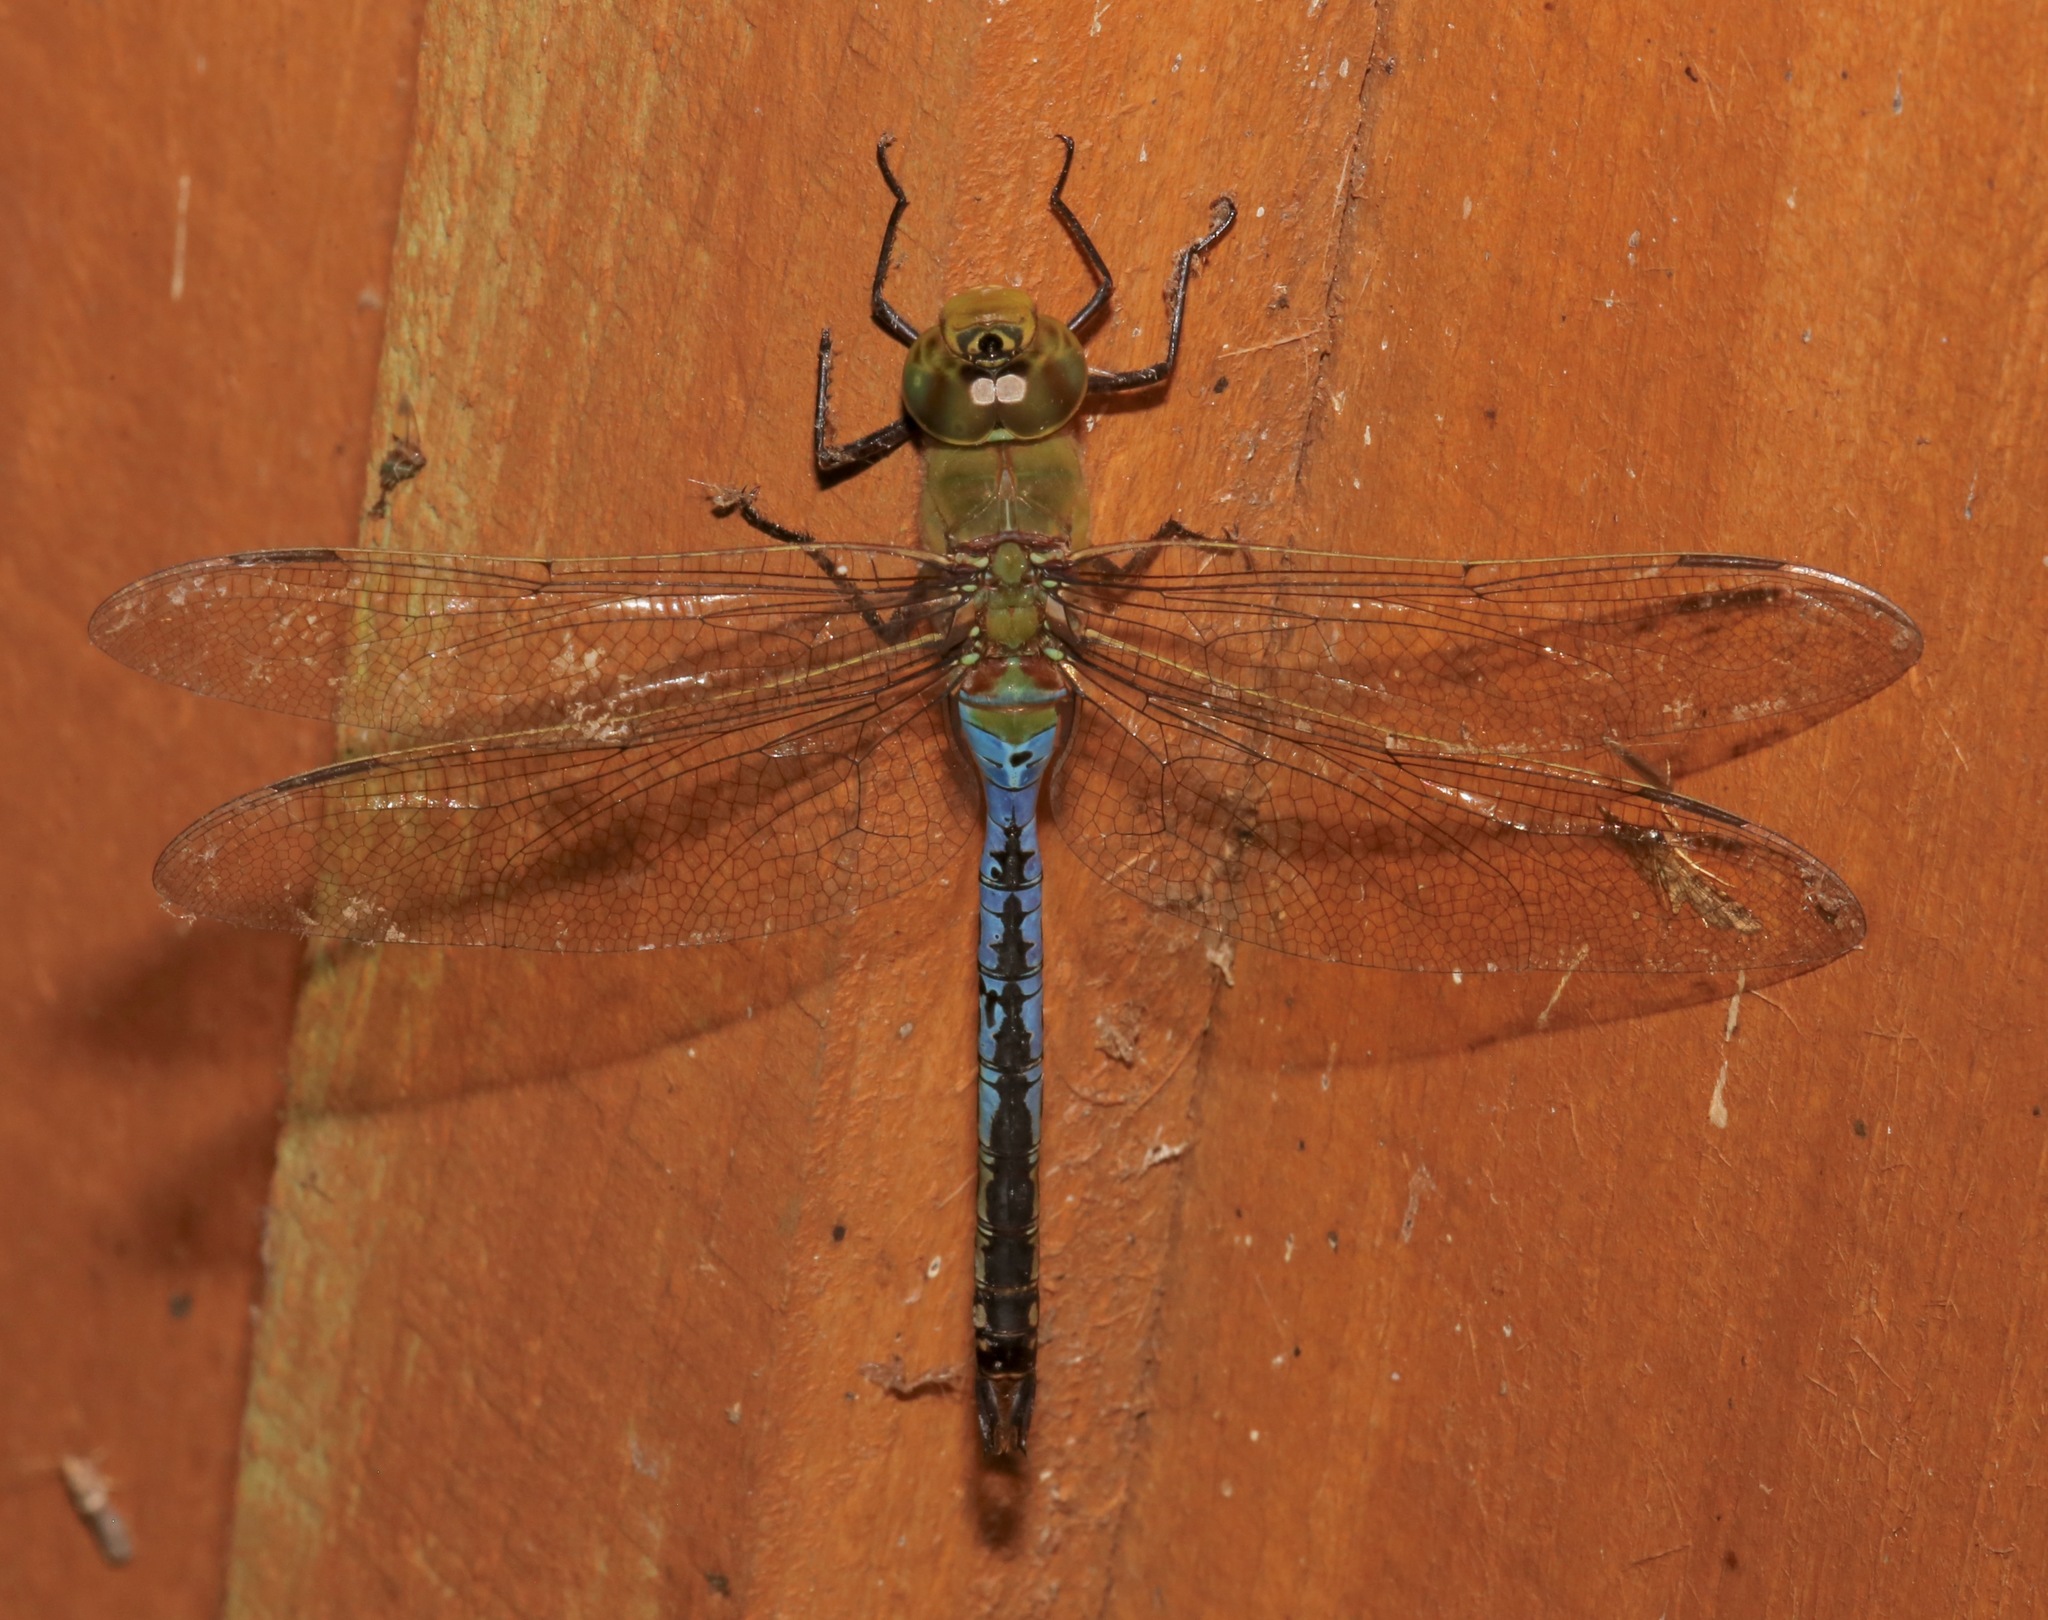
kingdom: Animalia
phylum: Arthropoda
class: Insecta
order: Odonata
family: Aeshnidae
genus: Anax
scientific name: Anax junius
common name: Common green darner
